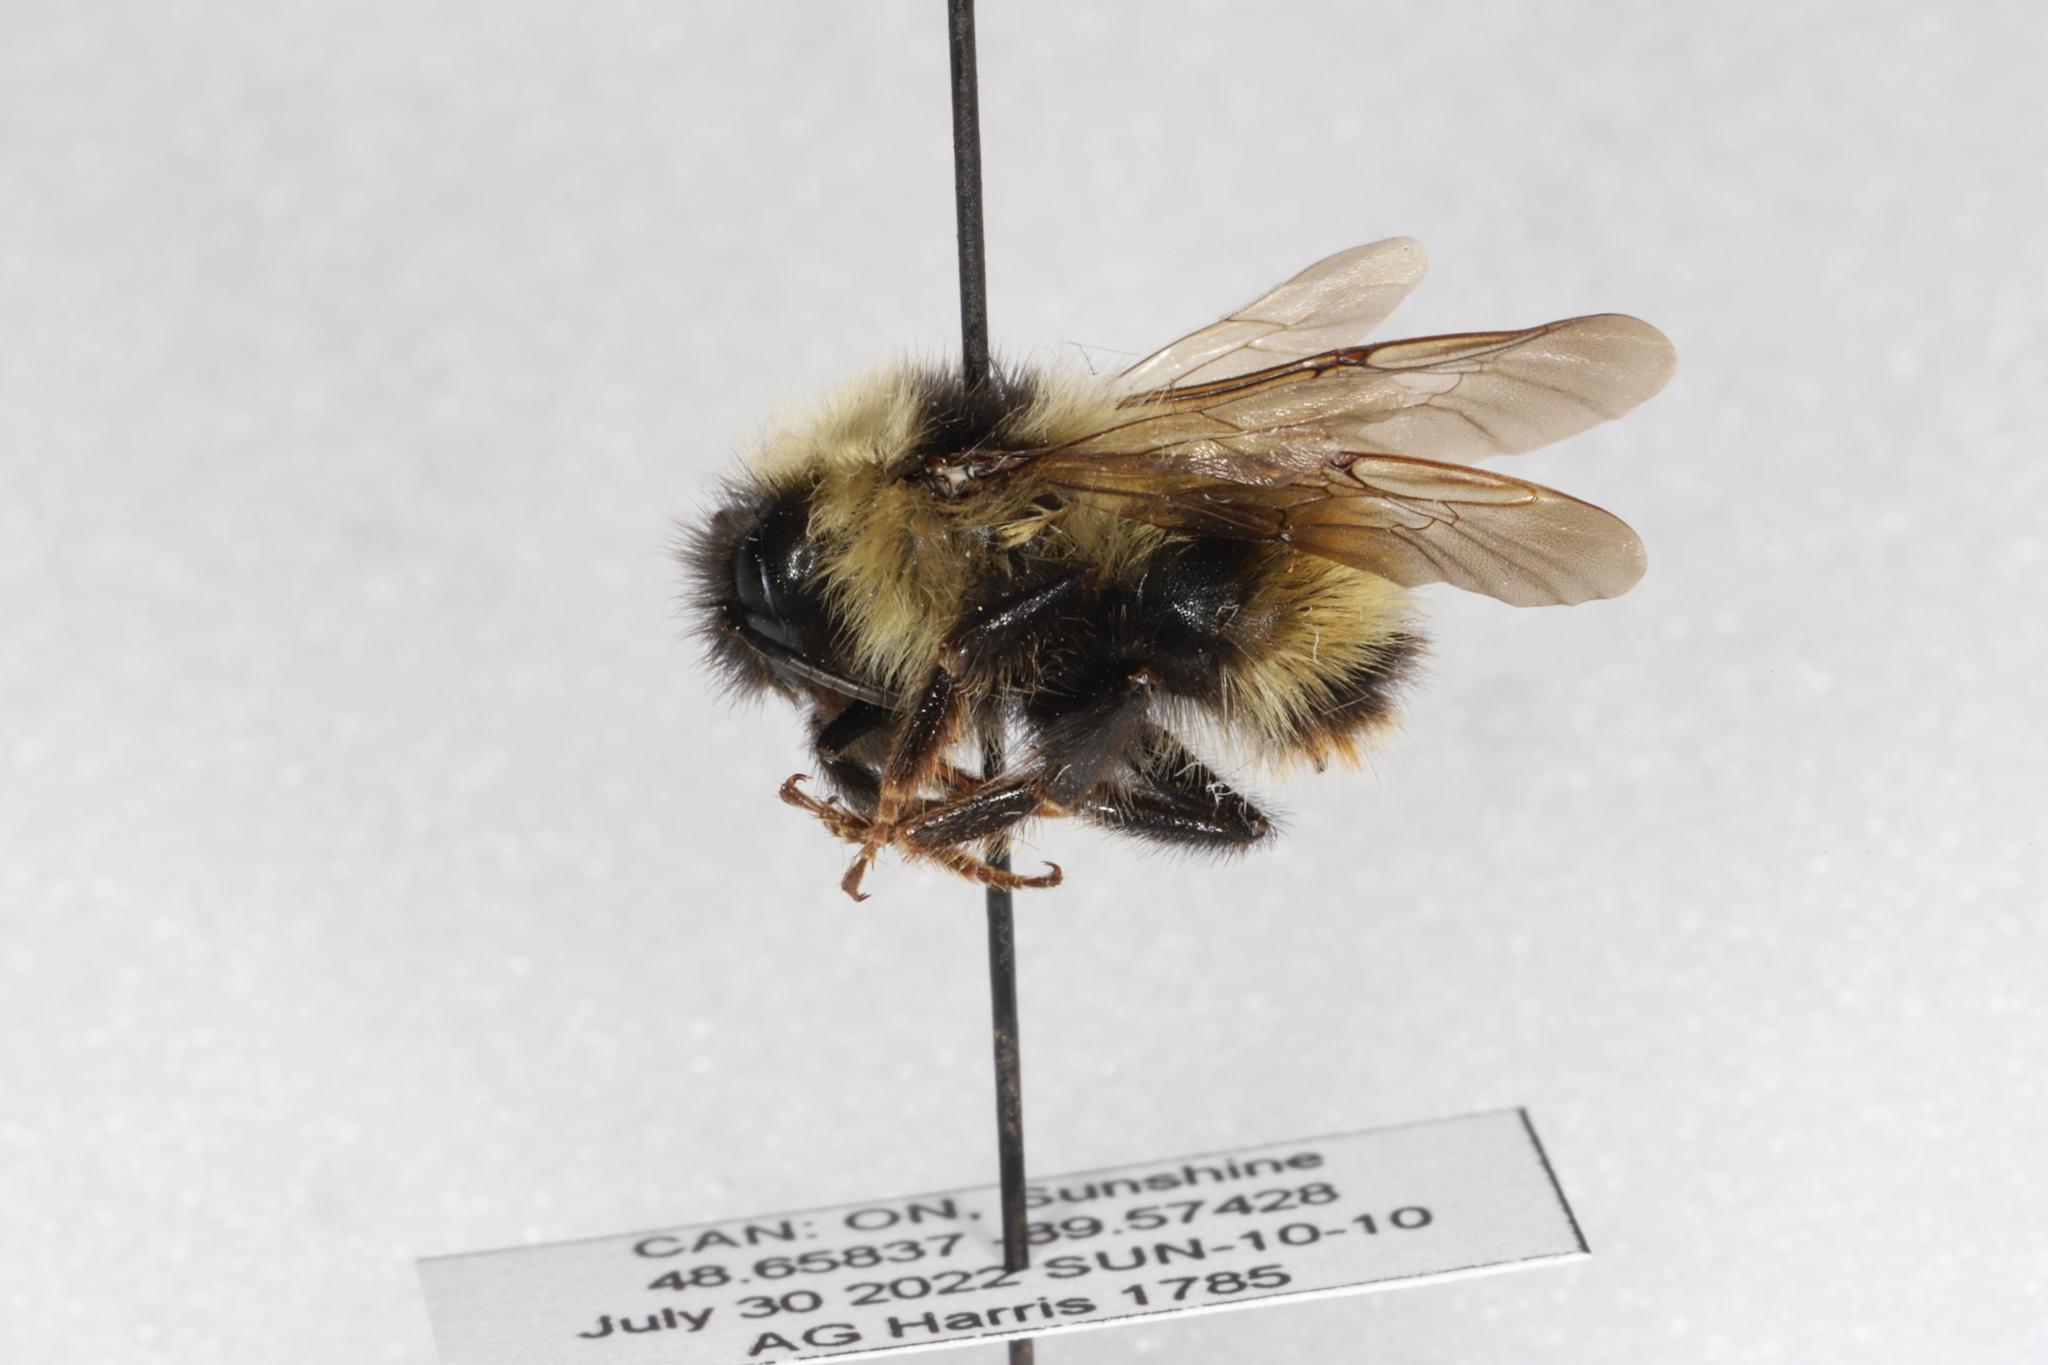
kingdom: Animalia
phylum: Arthropoda
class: Insecta
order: Hymenoptera
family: Apidae
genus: Bombus
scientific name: Bombus flavidus
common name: Fernald cuckoo bumble bee
